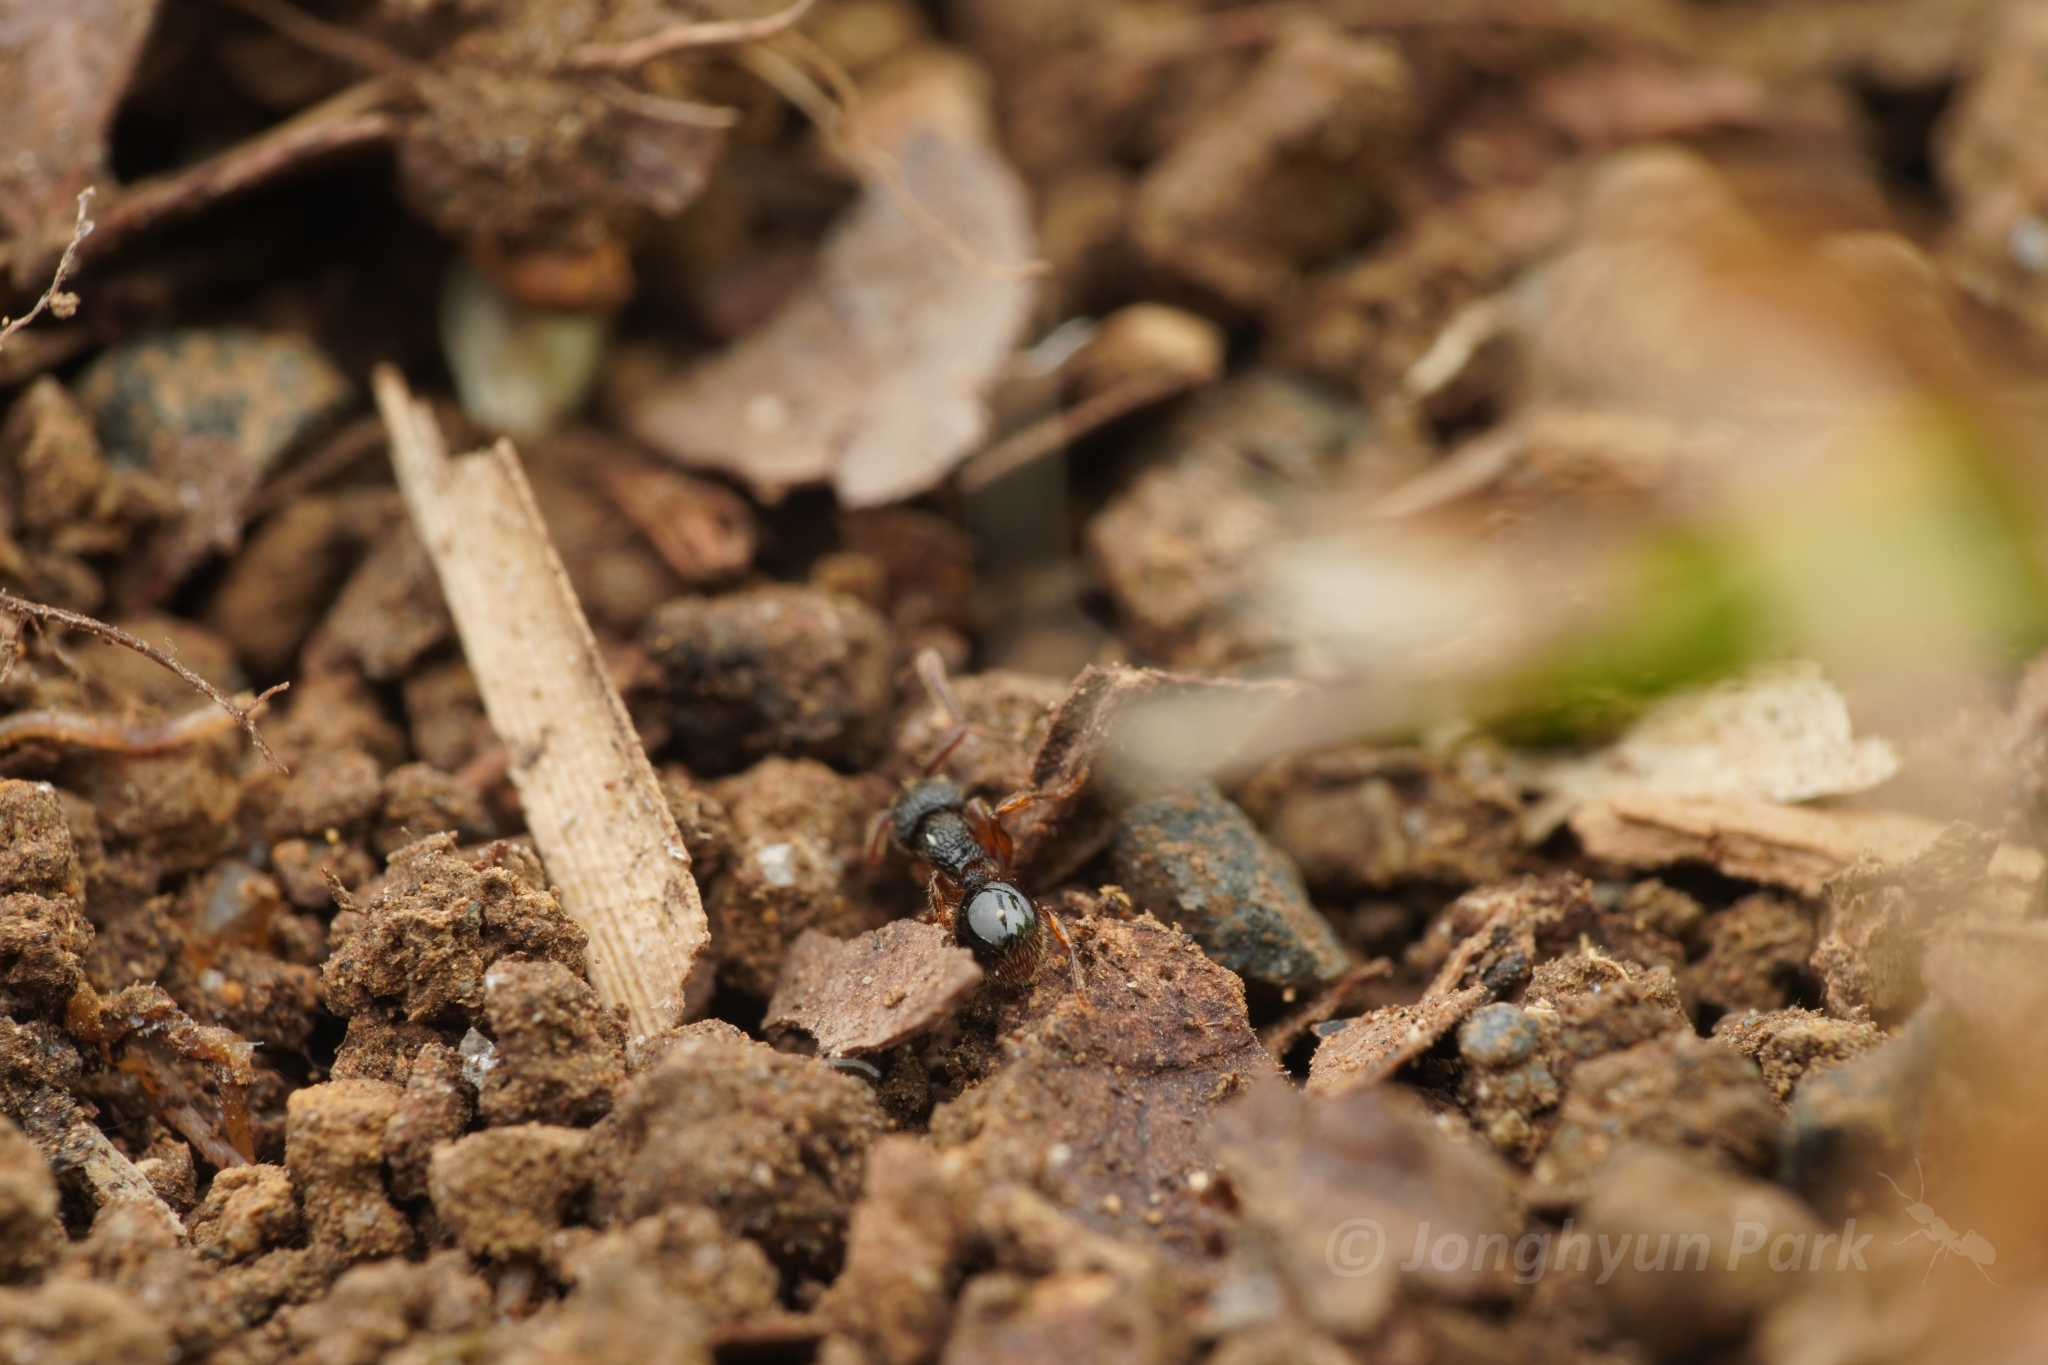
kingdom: Animalia
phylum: Arthropoda
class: Insecta
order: Hymenoptera
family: Formicidae
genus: Myrmecina
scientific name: Myrmecina nipponica
